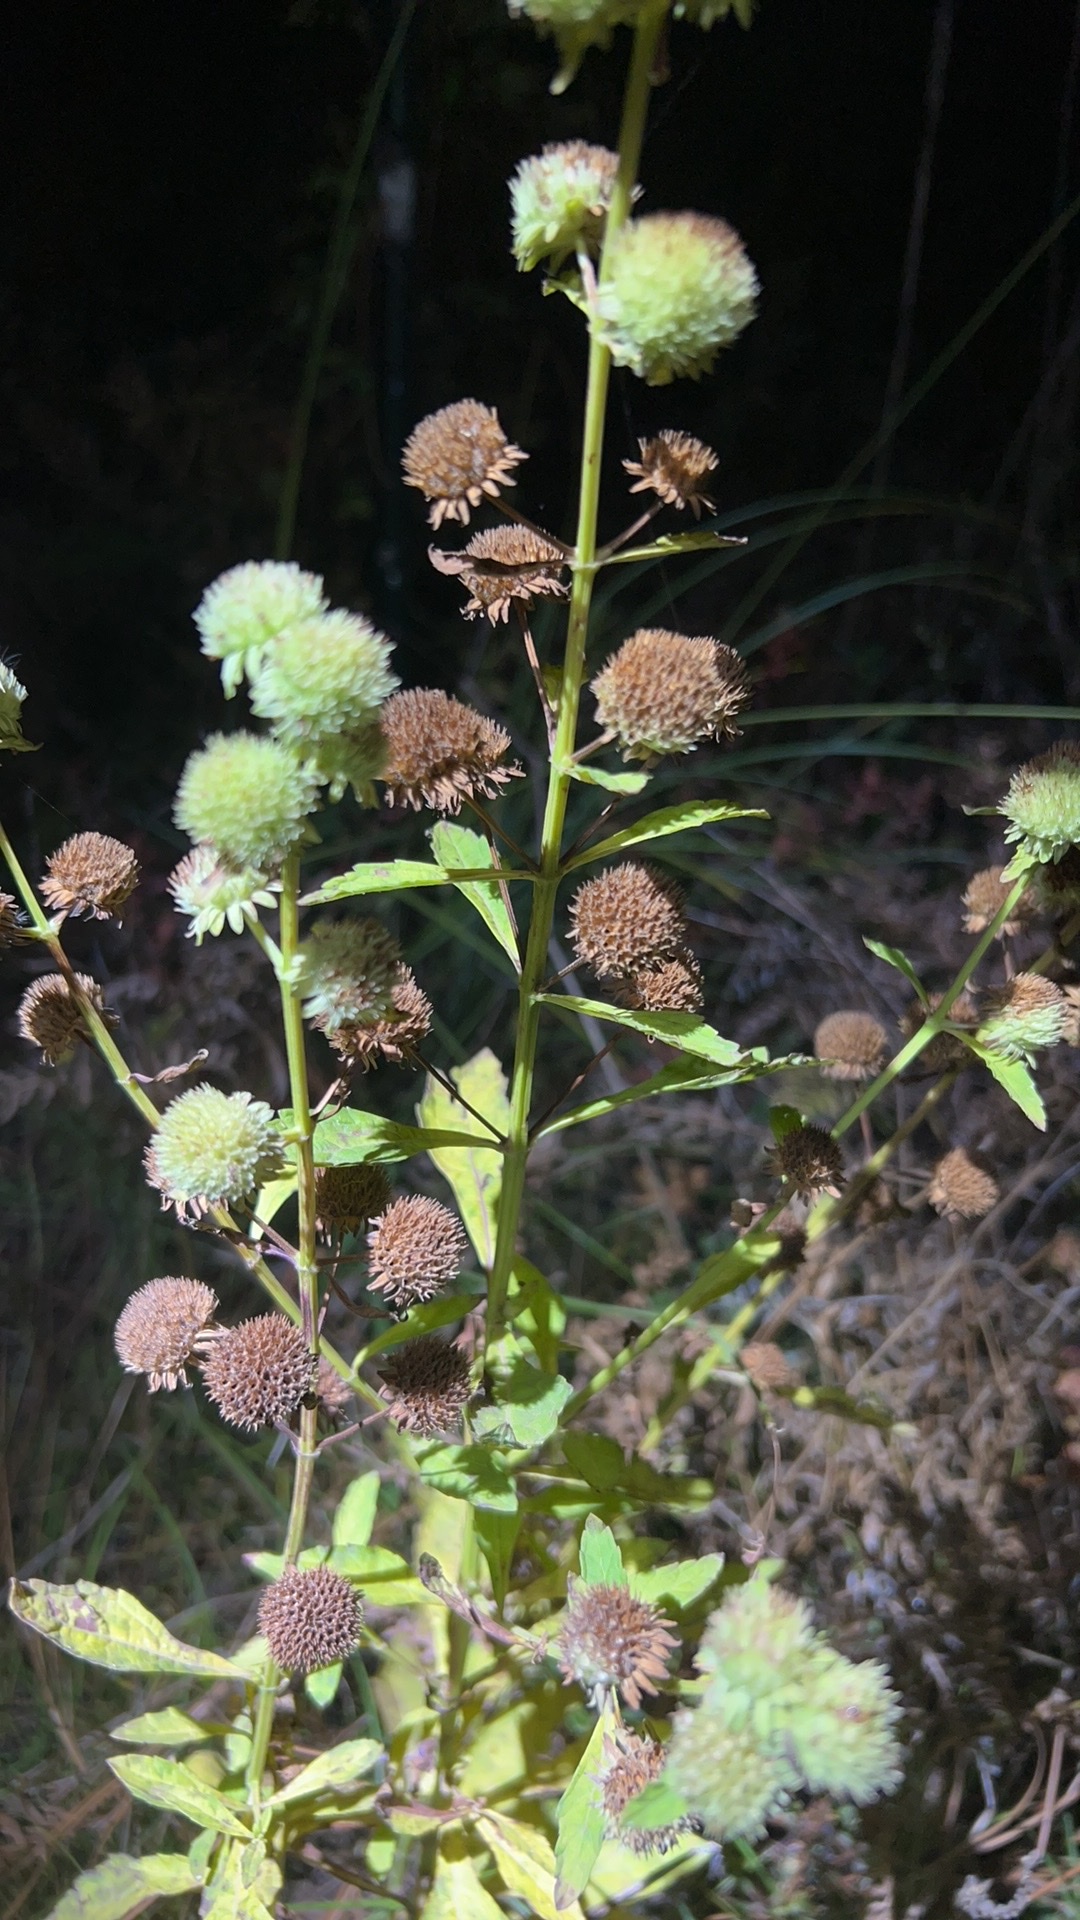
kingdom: Plantae
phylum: Tracheophyta
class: Magnoliopsida
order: Lamiales
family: Lamiaceae
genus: Hyptis
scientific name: Hyptis alata
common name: Cluster bush-mint
